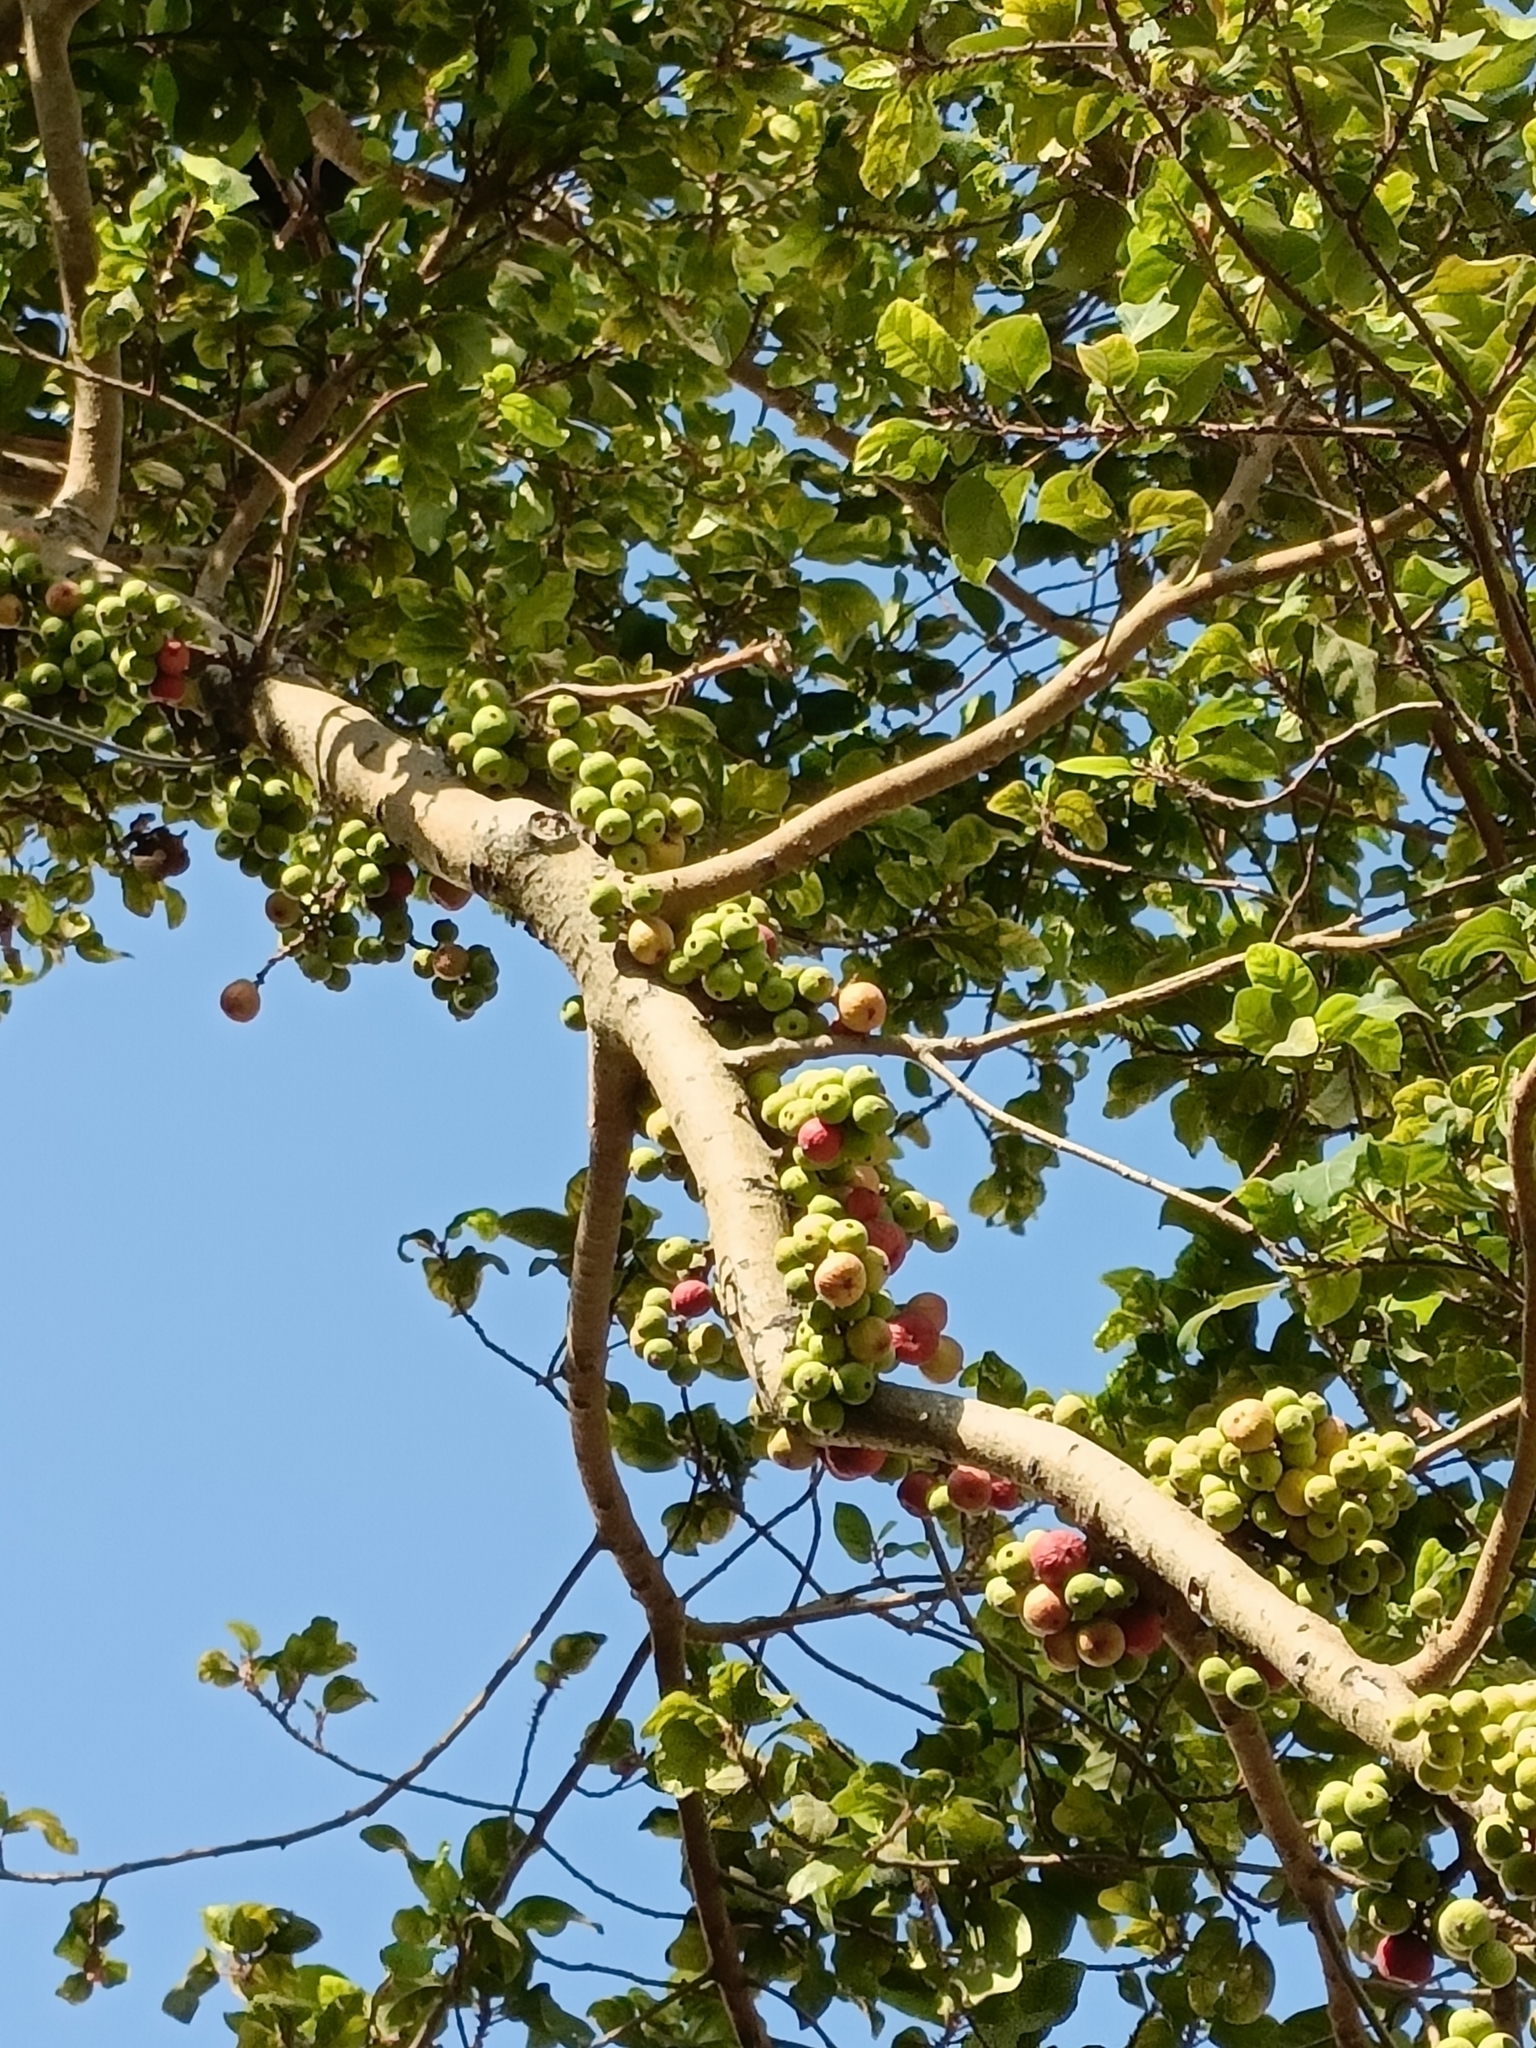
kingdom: Plantae
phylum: Tracheophyta
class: Magnoliopsida
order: Rosales
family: Moraceae
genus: Ficus
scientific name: Ficus racemosa
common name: Cluster fig
